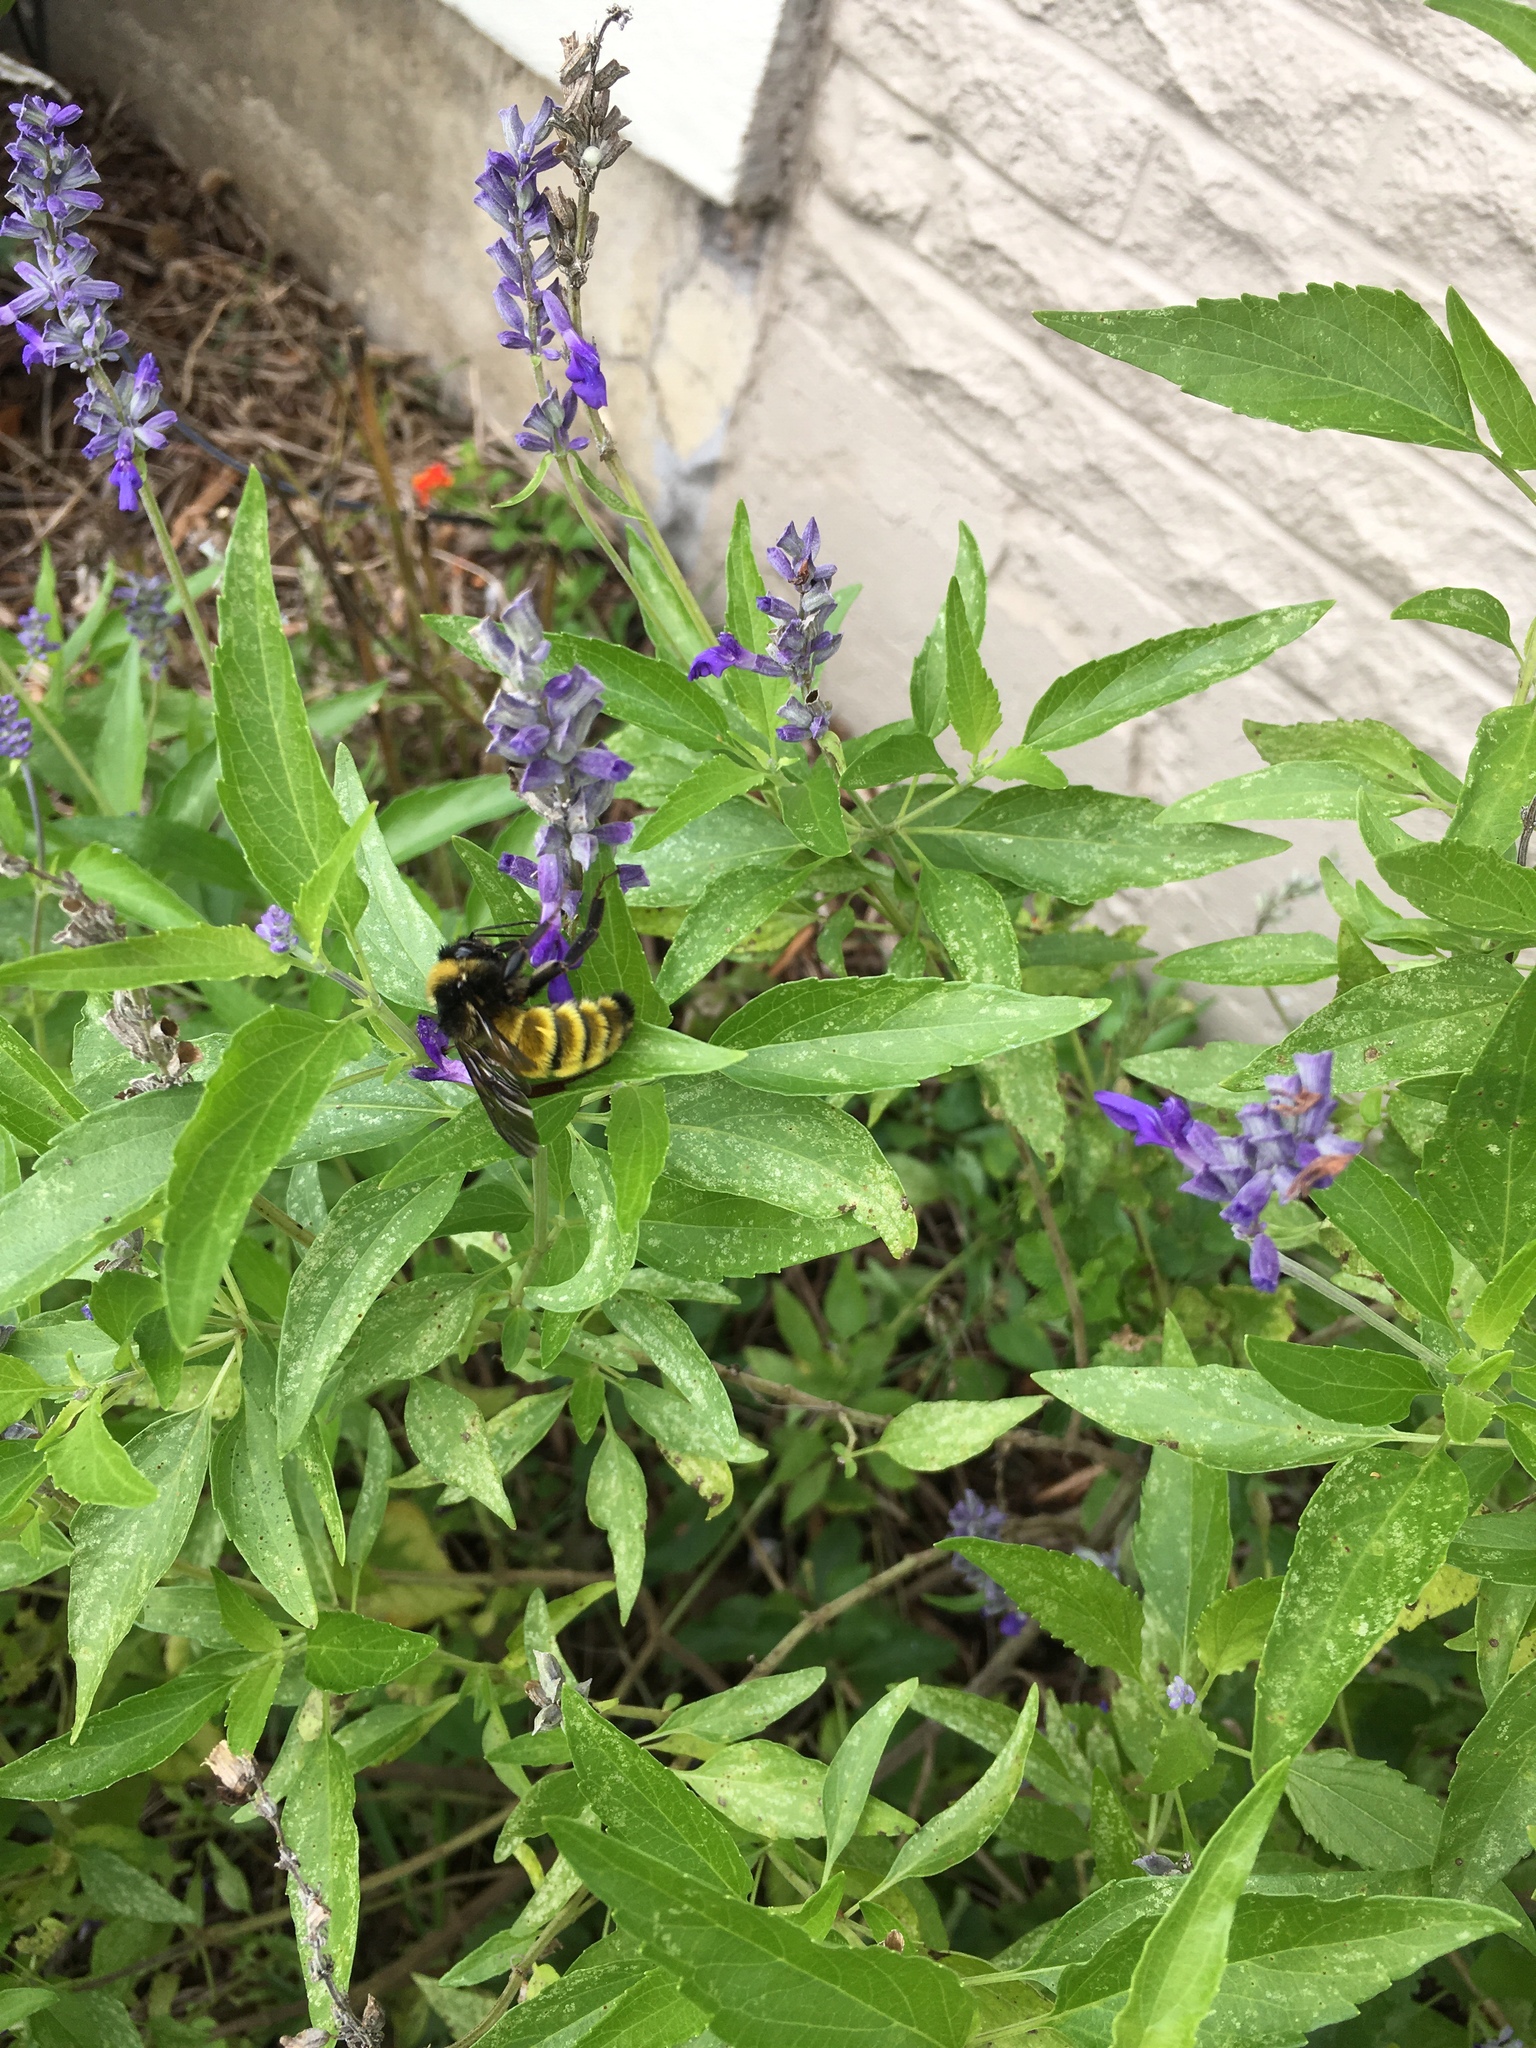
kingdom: Animalia
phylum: Arthropoda
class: Insecta
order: Hymenoptera
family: Apidae
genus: Bombus
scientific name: Bombus pensylvanicus
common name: Bumble bee
